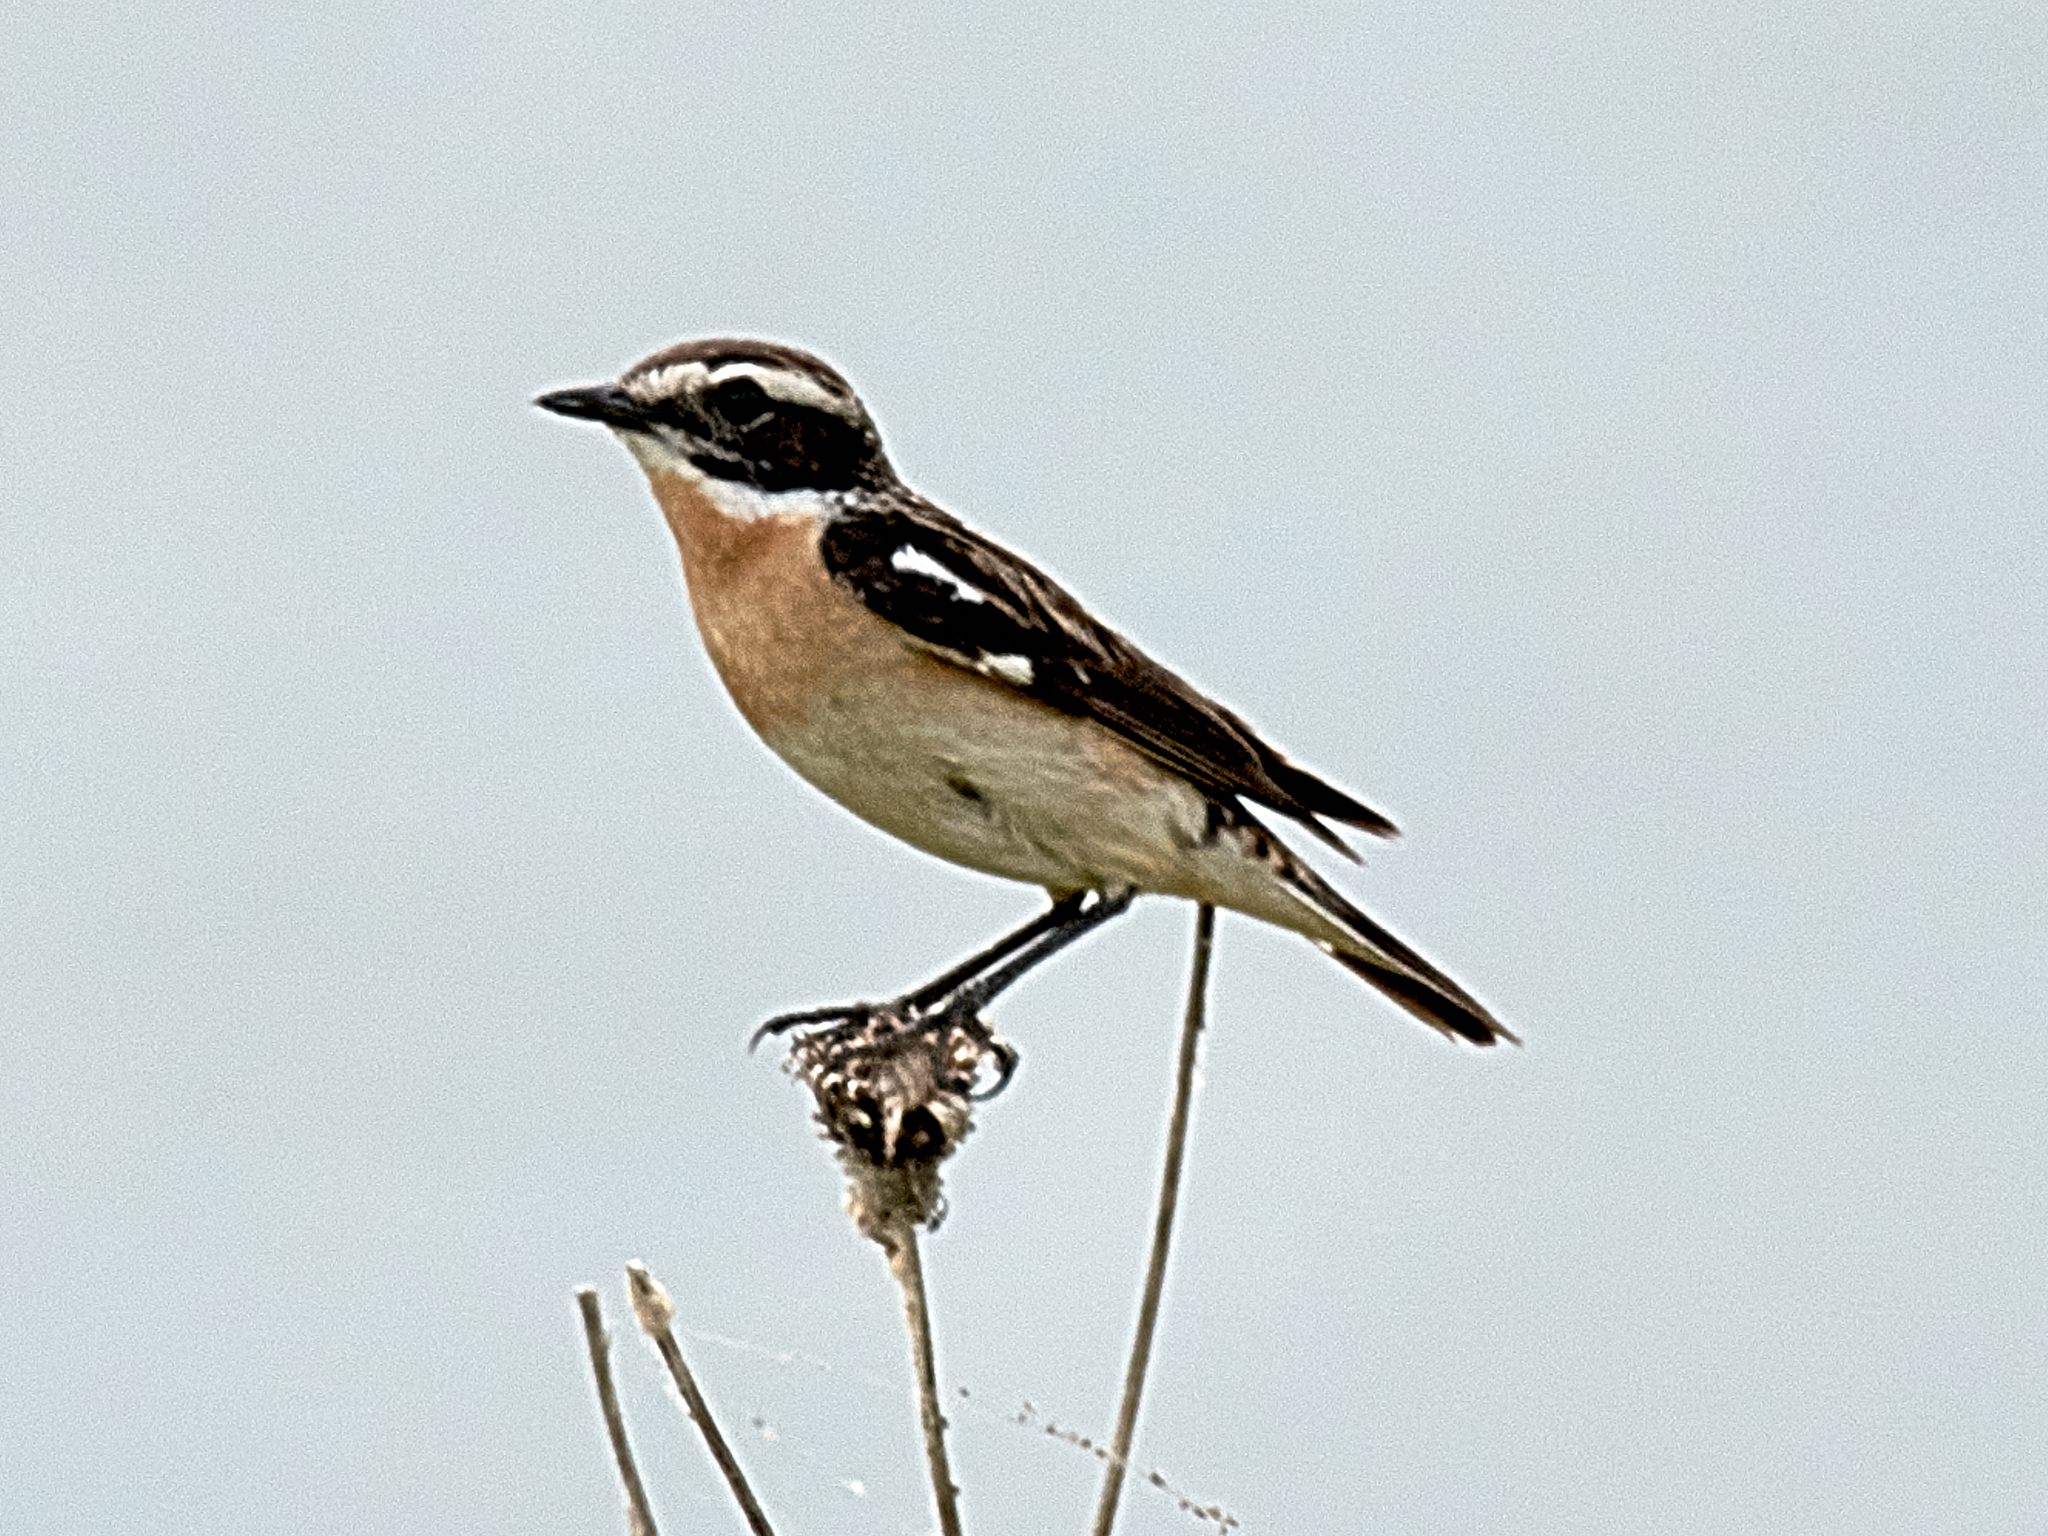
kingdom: Animalia
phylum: Chordata
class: Aves
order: Passeriformes
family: Muscicapidae
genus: Saxicola
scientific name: Saxicola rubetra
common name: Whinchat
